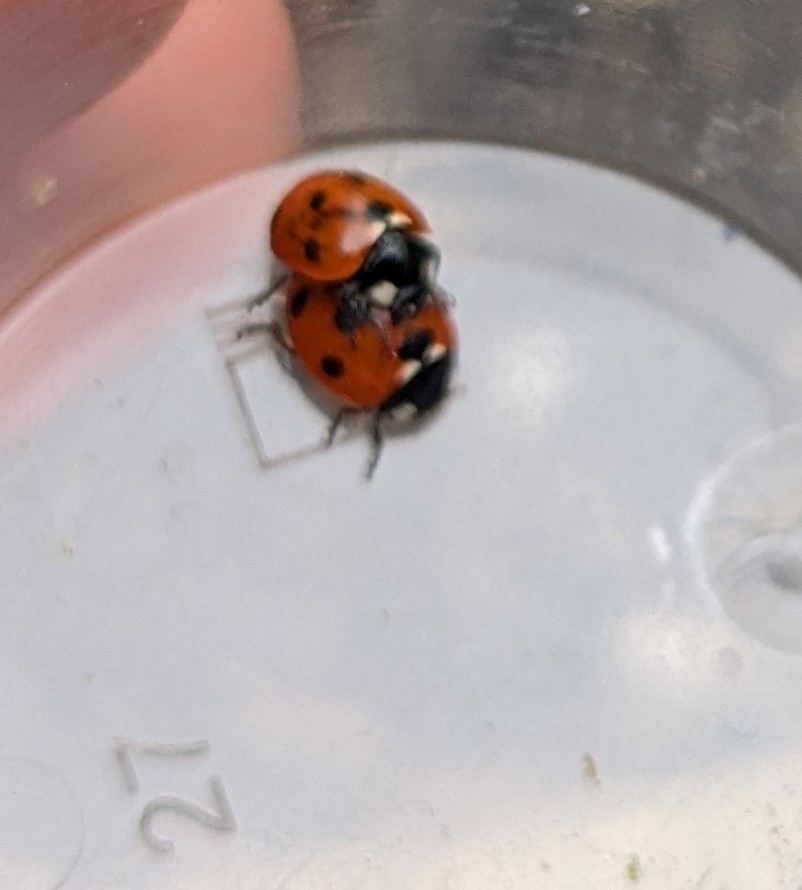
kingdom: Animalia
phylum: Arthropoda
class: Insecta
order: Coleoptera
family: Coccinellidae
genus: Coccinella
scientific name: Coccinella septempunctata
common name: Sevenspotted lady beetle
